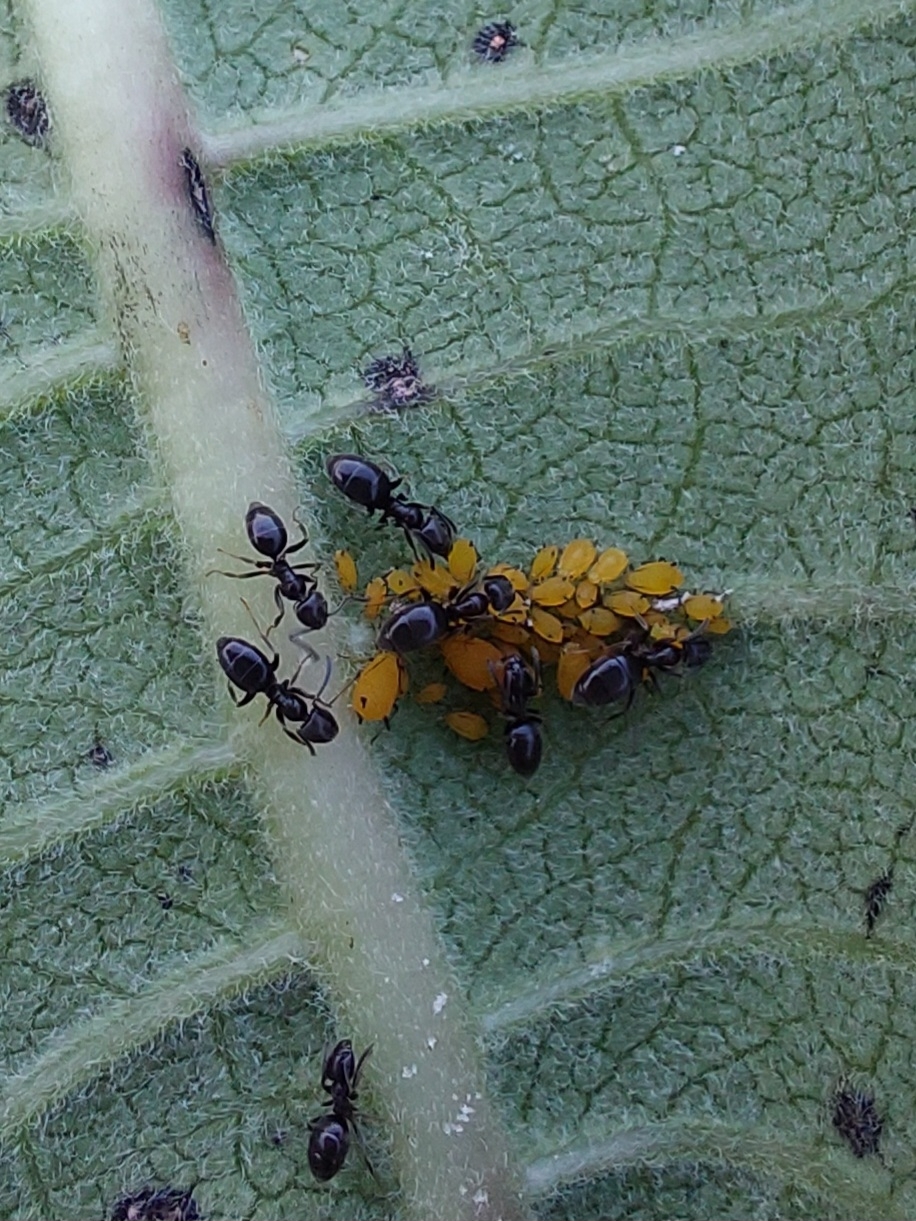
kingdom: Animalia
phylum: Arthropoda
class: Insecta
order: Hymenoptera
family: Formicidae
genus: Tapinoma
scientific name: Tapinoma sessile
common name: Odorous house ant
